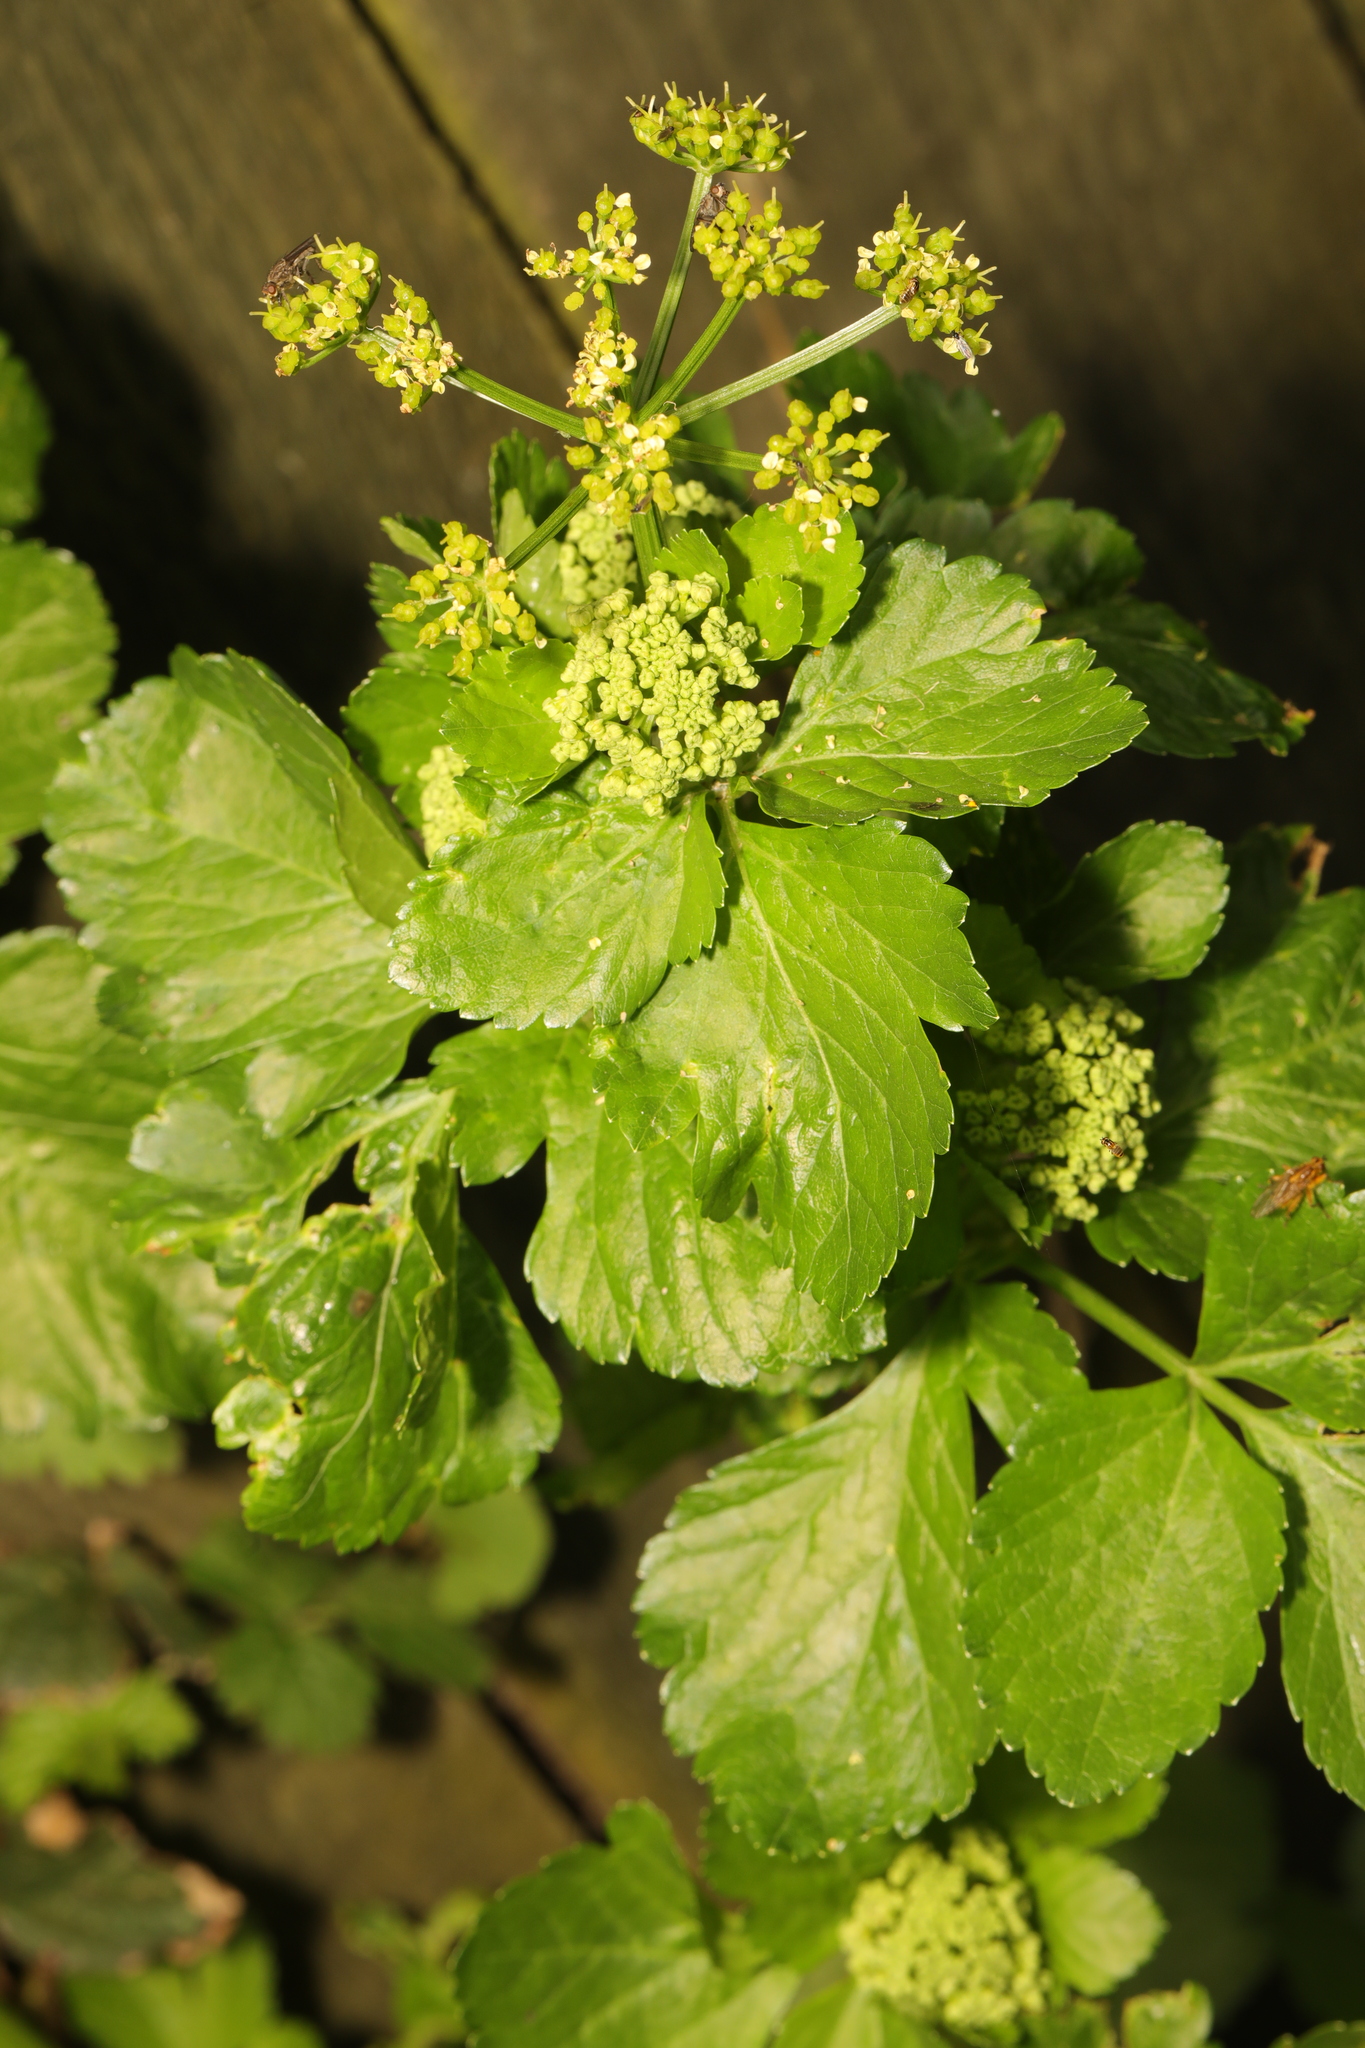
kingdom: Plantae
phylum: Tracheophyta
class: Magnoliopsida
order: Apiales
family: Apiaceae
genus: Smyrnium
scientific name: Smyrnium olusatrum
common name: Alexanders
